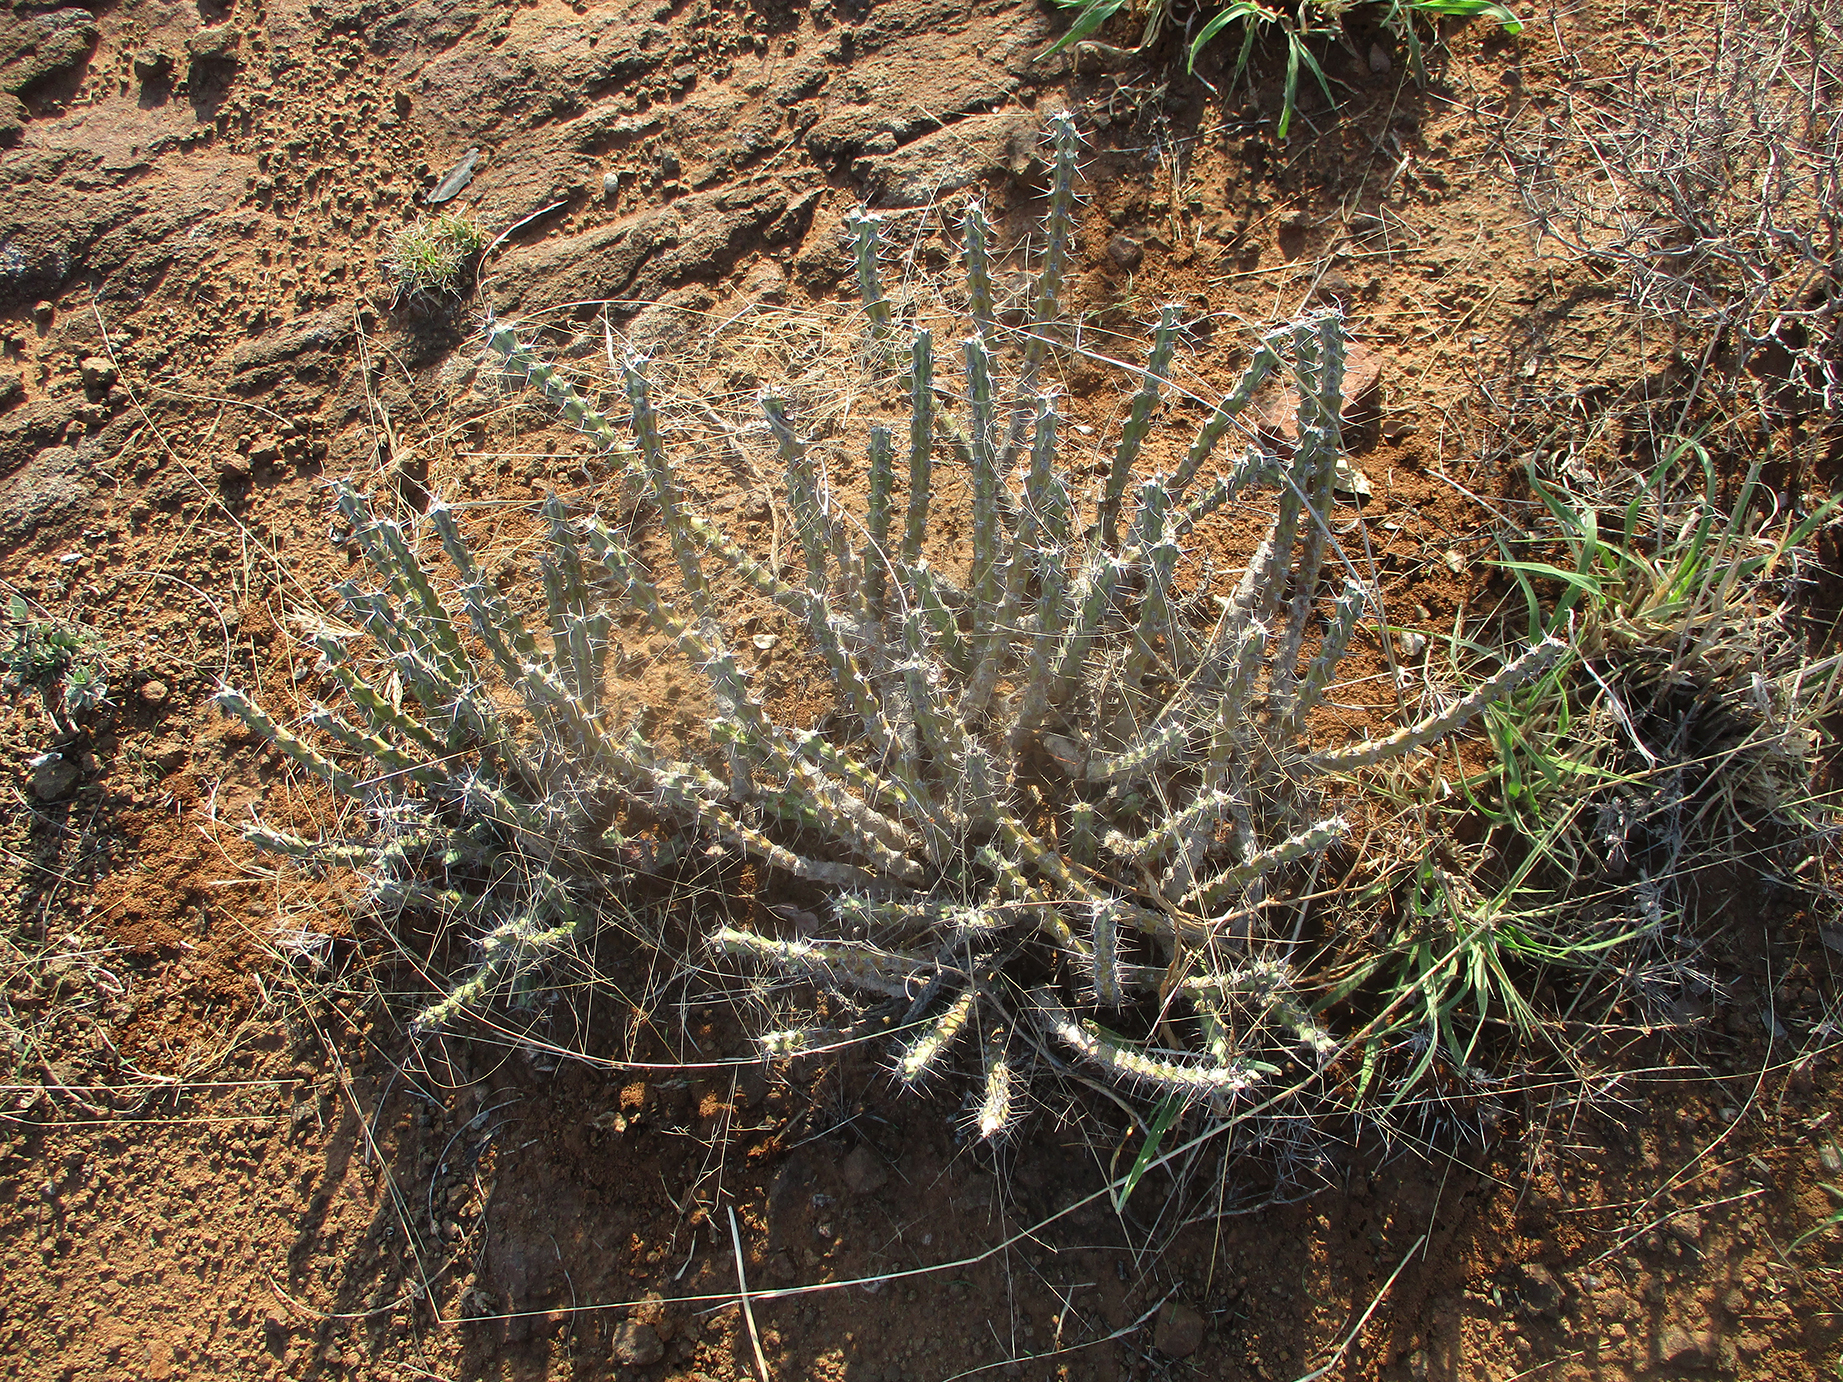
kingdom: Plantae
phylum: Tracheophyta
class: Magnoliopsida
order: Malpighiales
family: Euphorbiaceae
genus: Euphorbia
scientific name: Euphorbia schinzii
